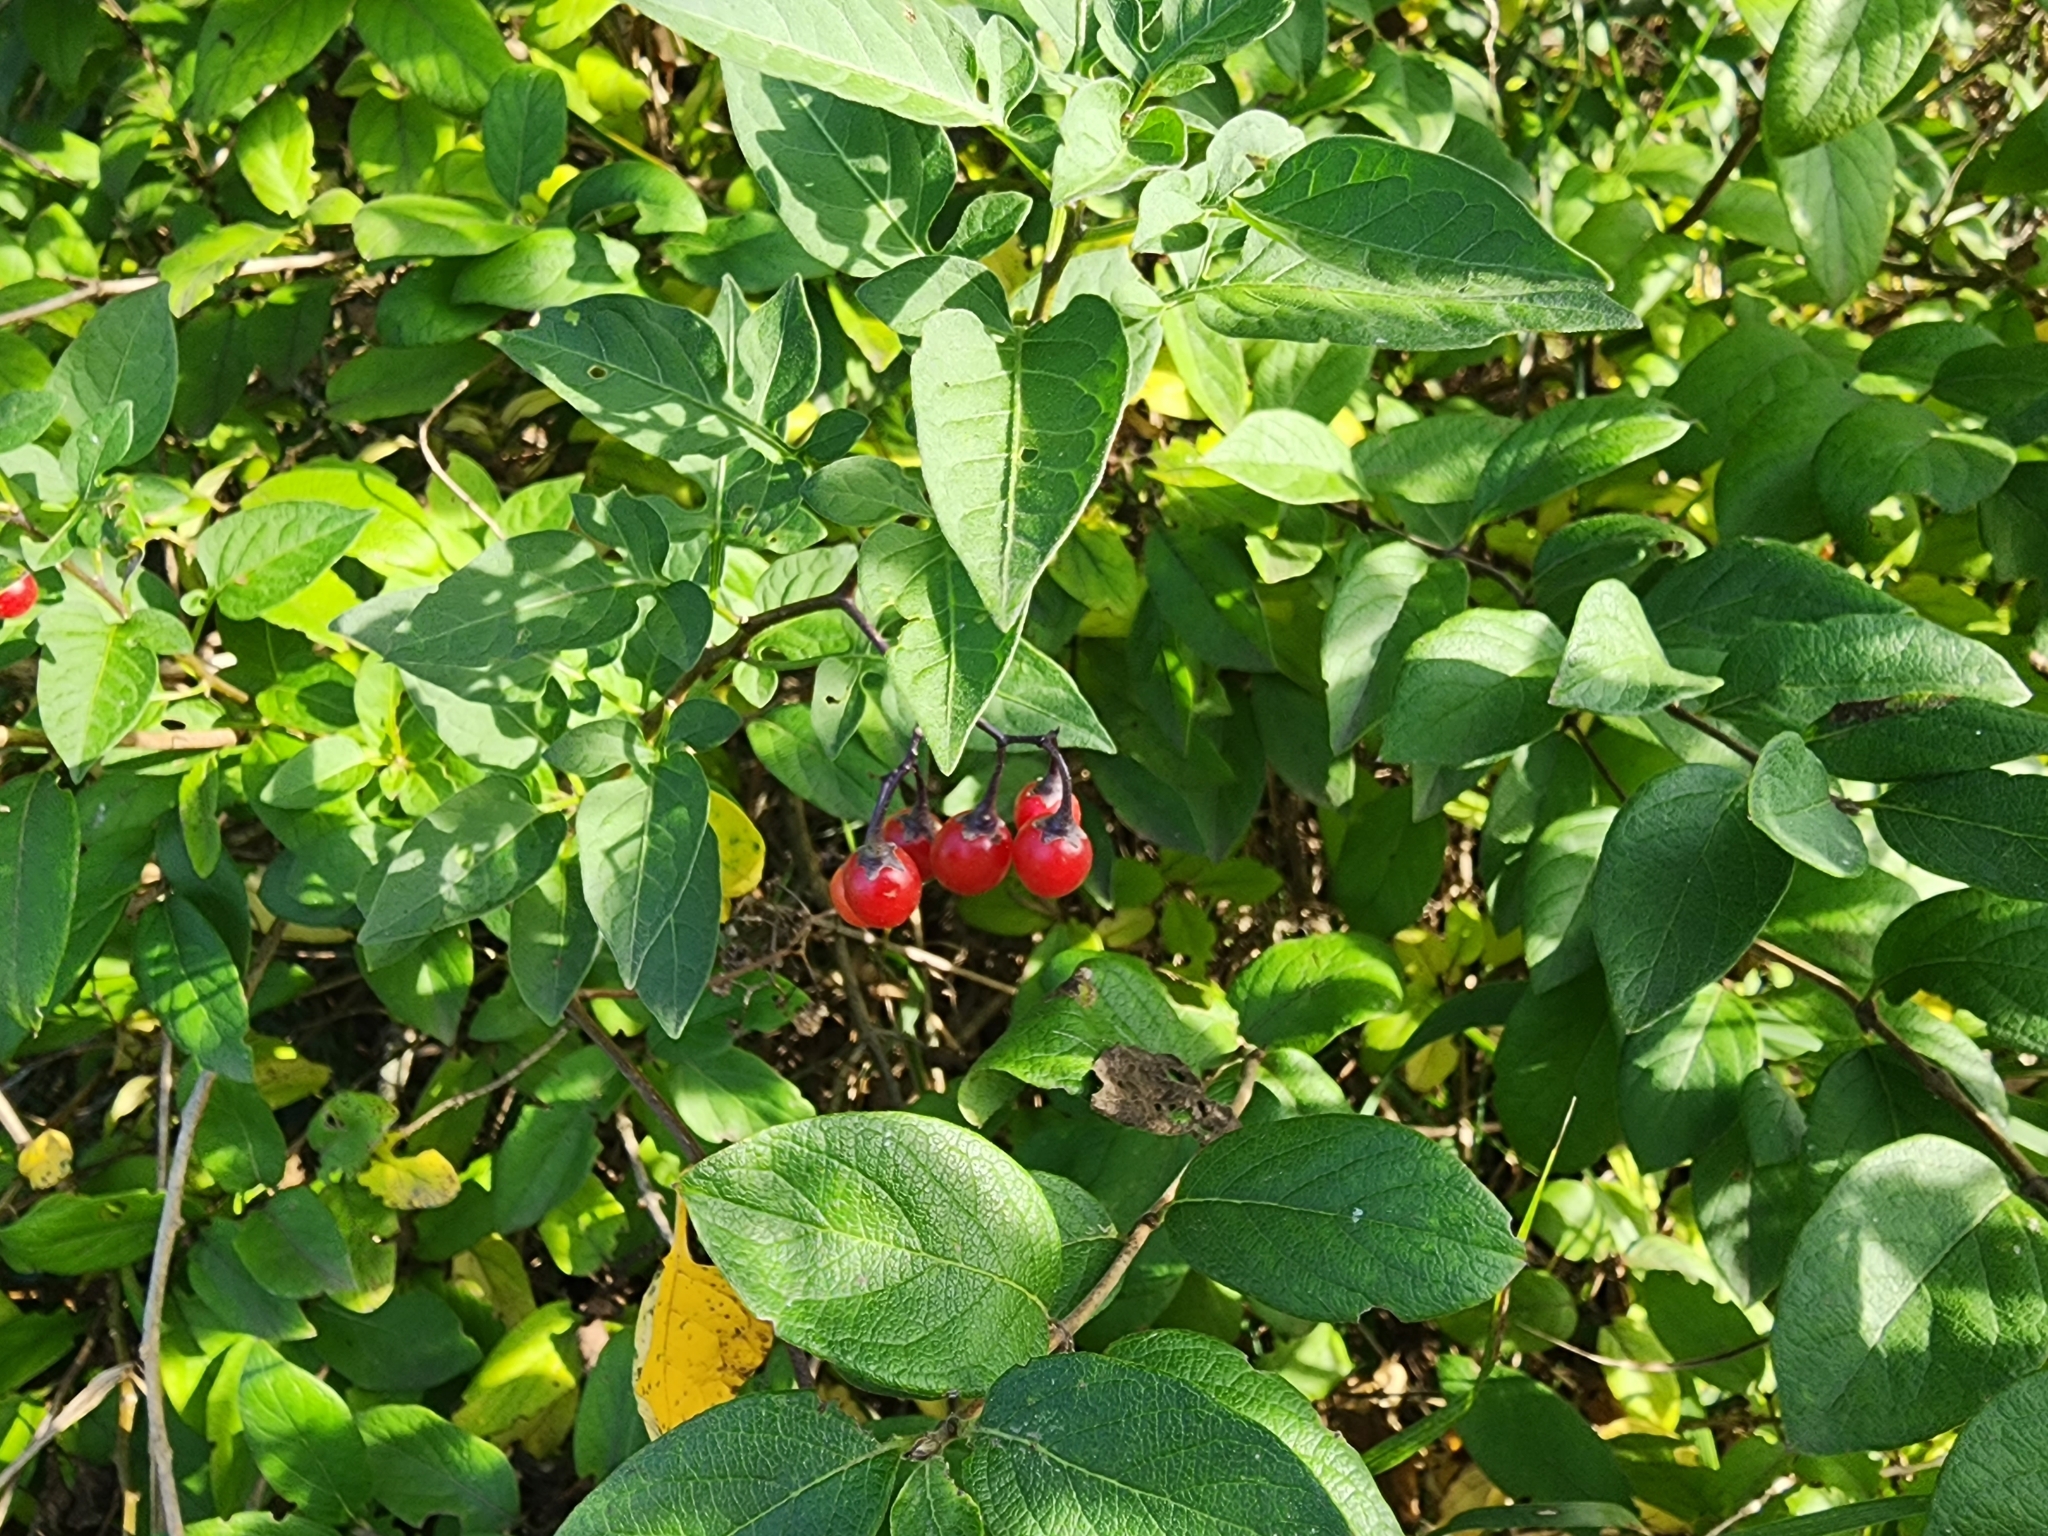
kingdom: Plantae
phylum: Tracheophyta
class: Magnoliopsida
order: Solanales
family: Solanaceae
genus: Solanum
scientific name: Solanum dulcamara
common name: Climbing nightshade
